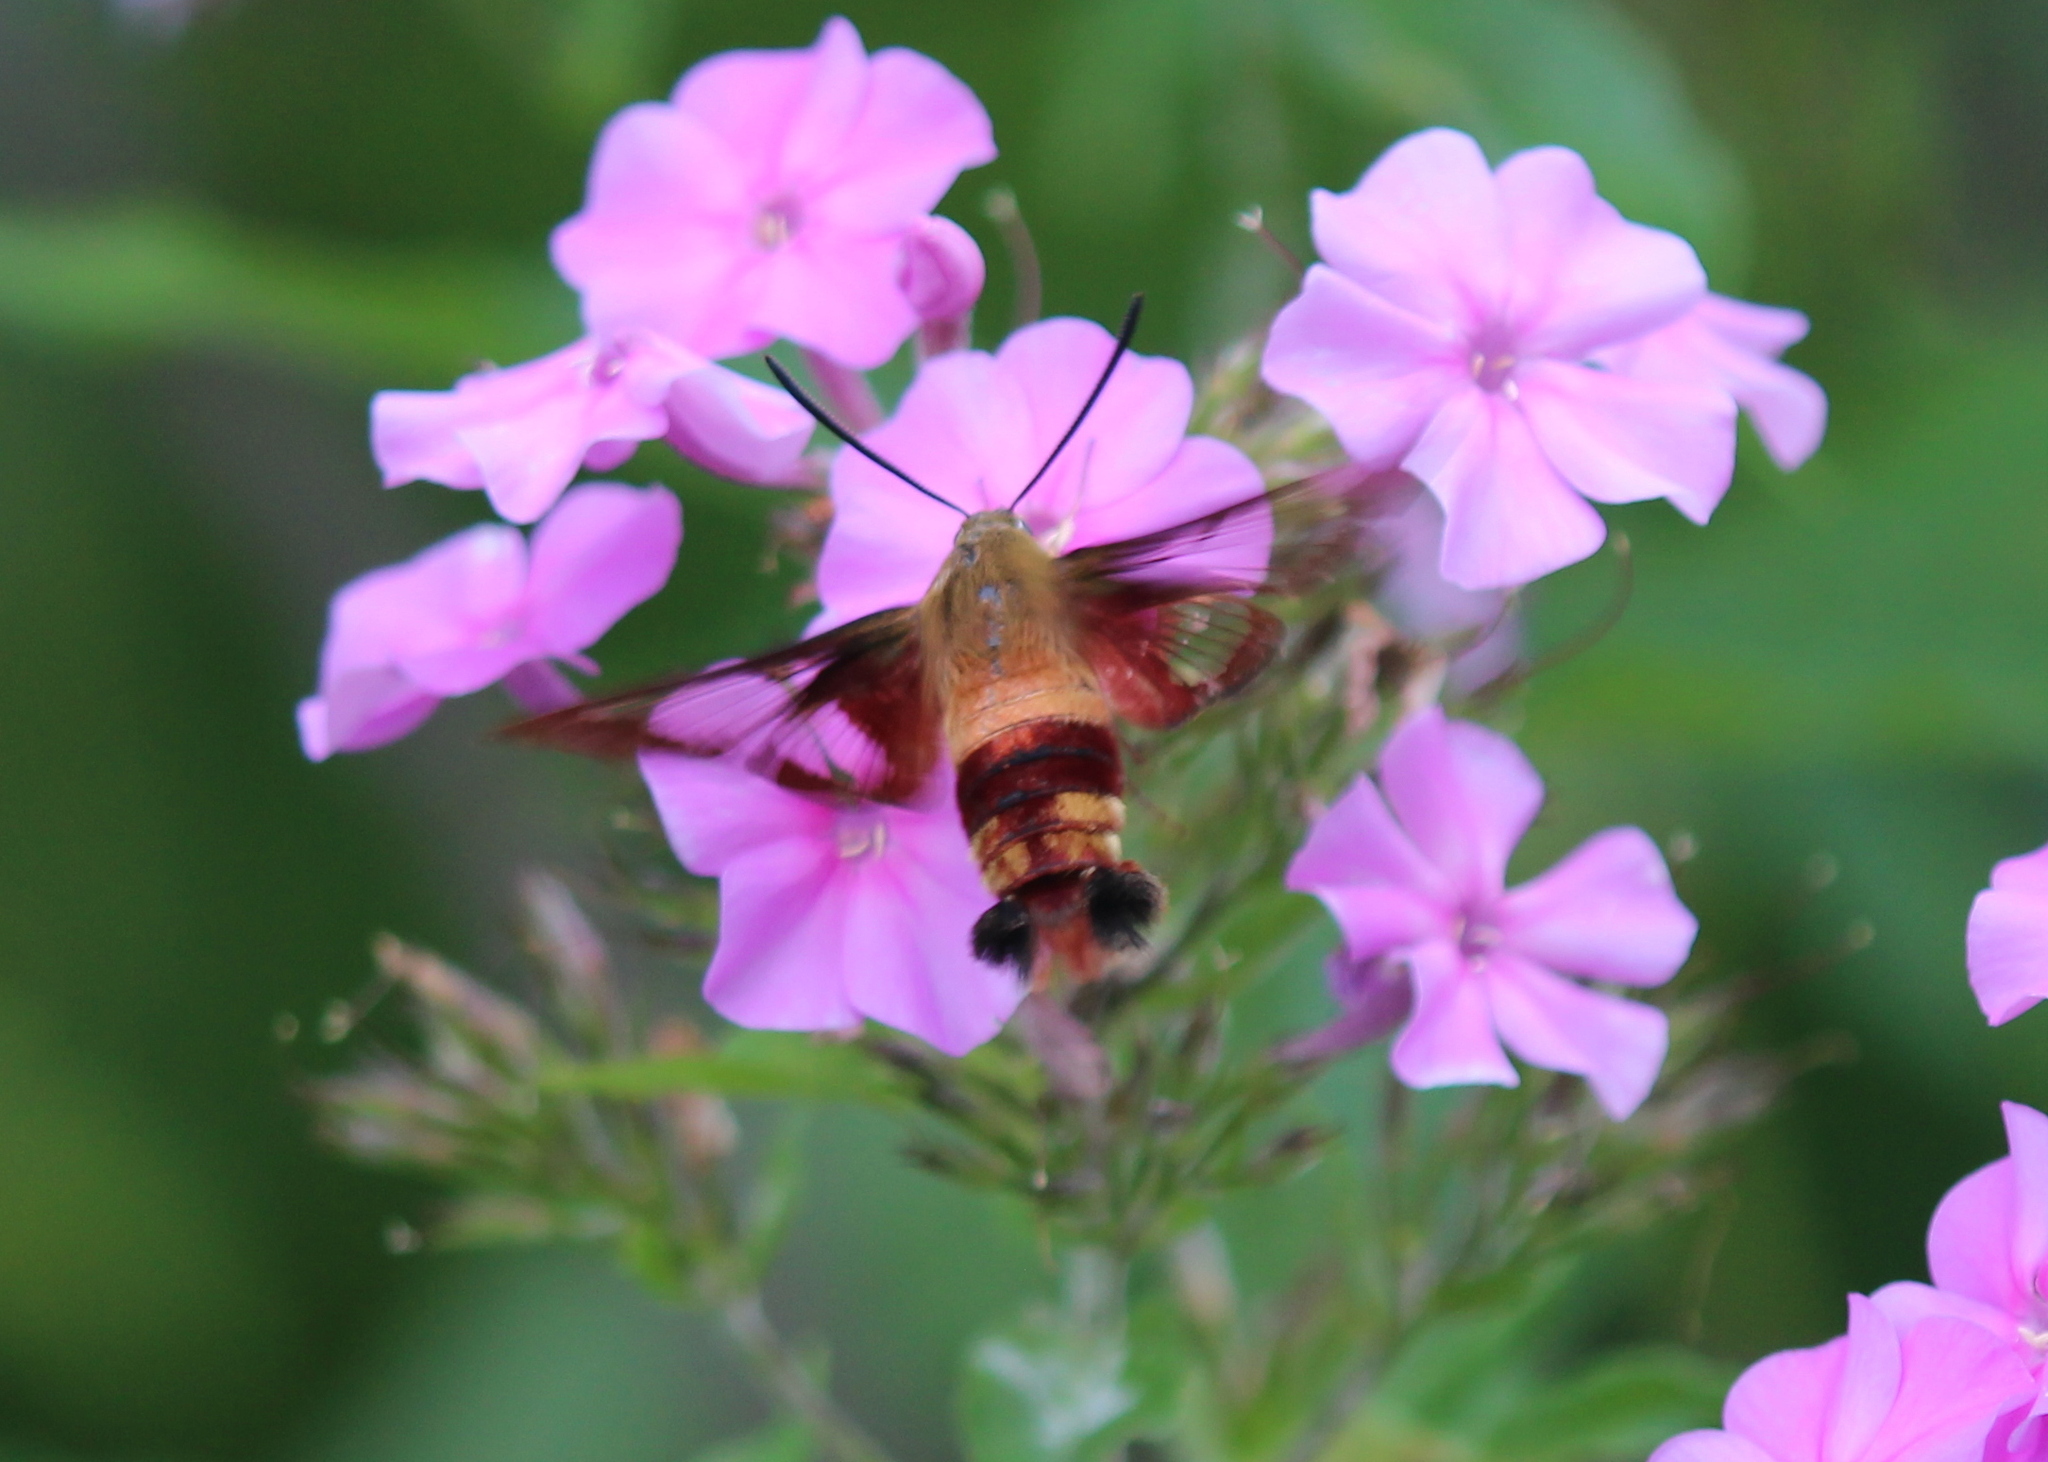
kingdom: Animalia
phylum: Arthropoda
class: Insecta
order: Lepidoptera
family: Sphingidae
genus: Hemaris
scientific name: Hemaris thysbe
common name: Common clear-wing
